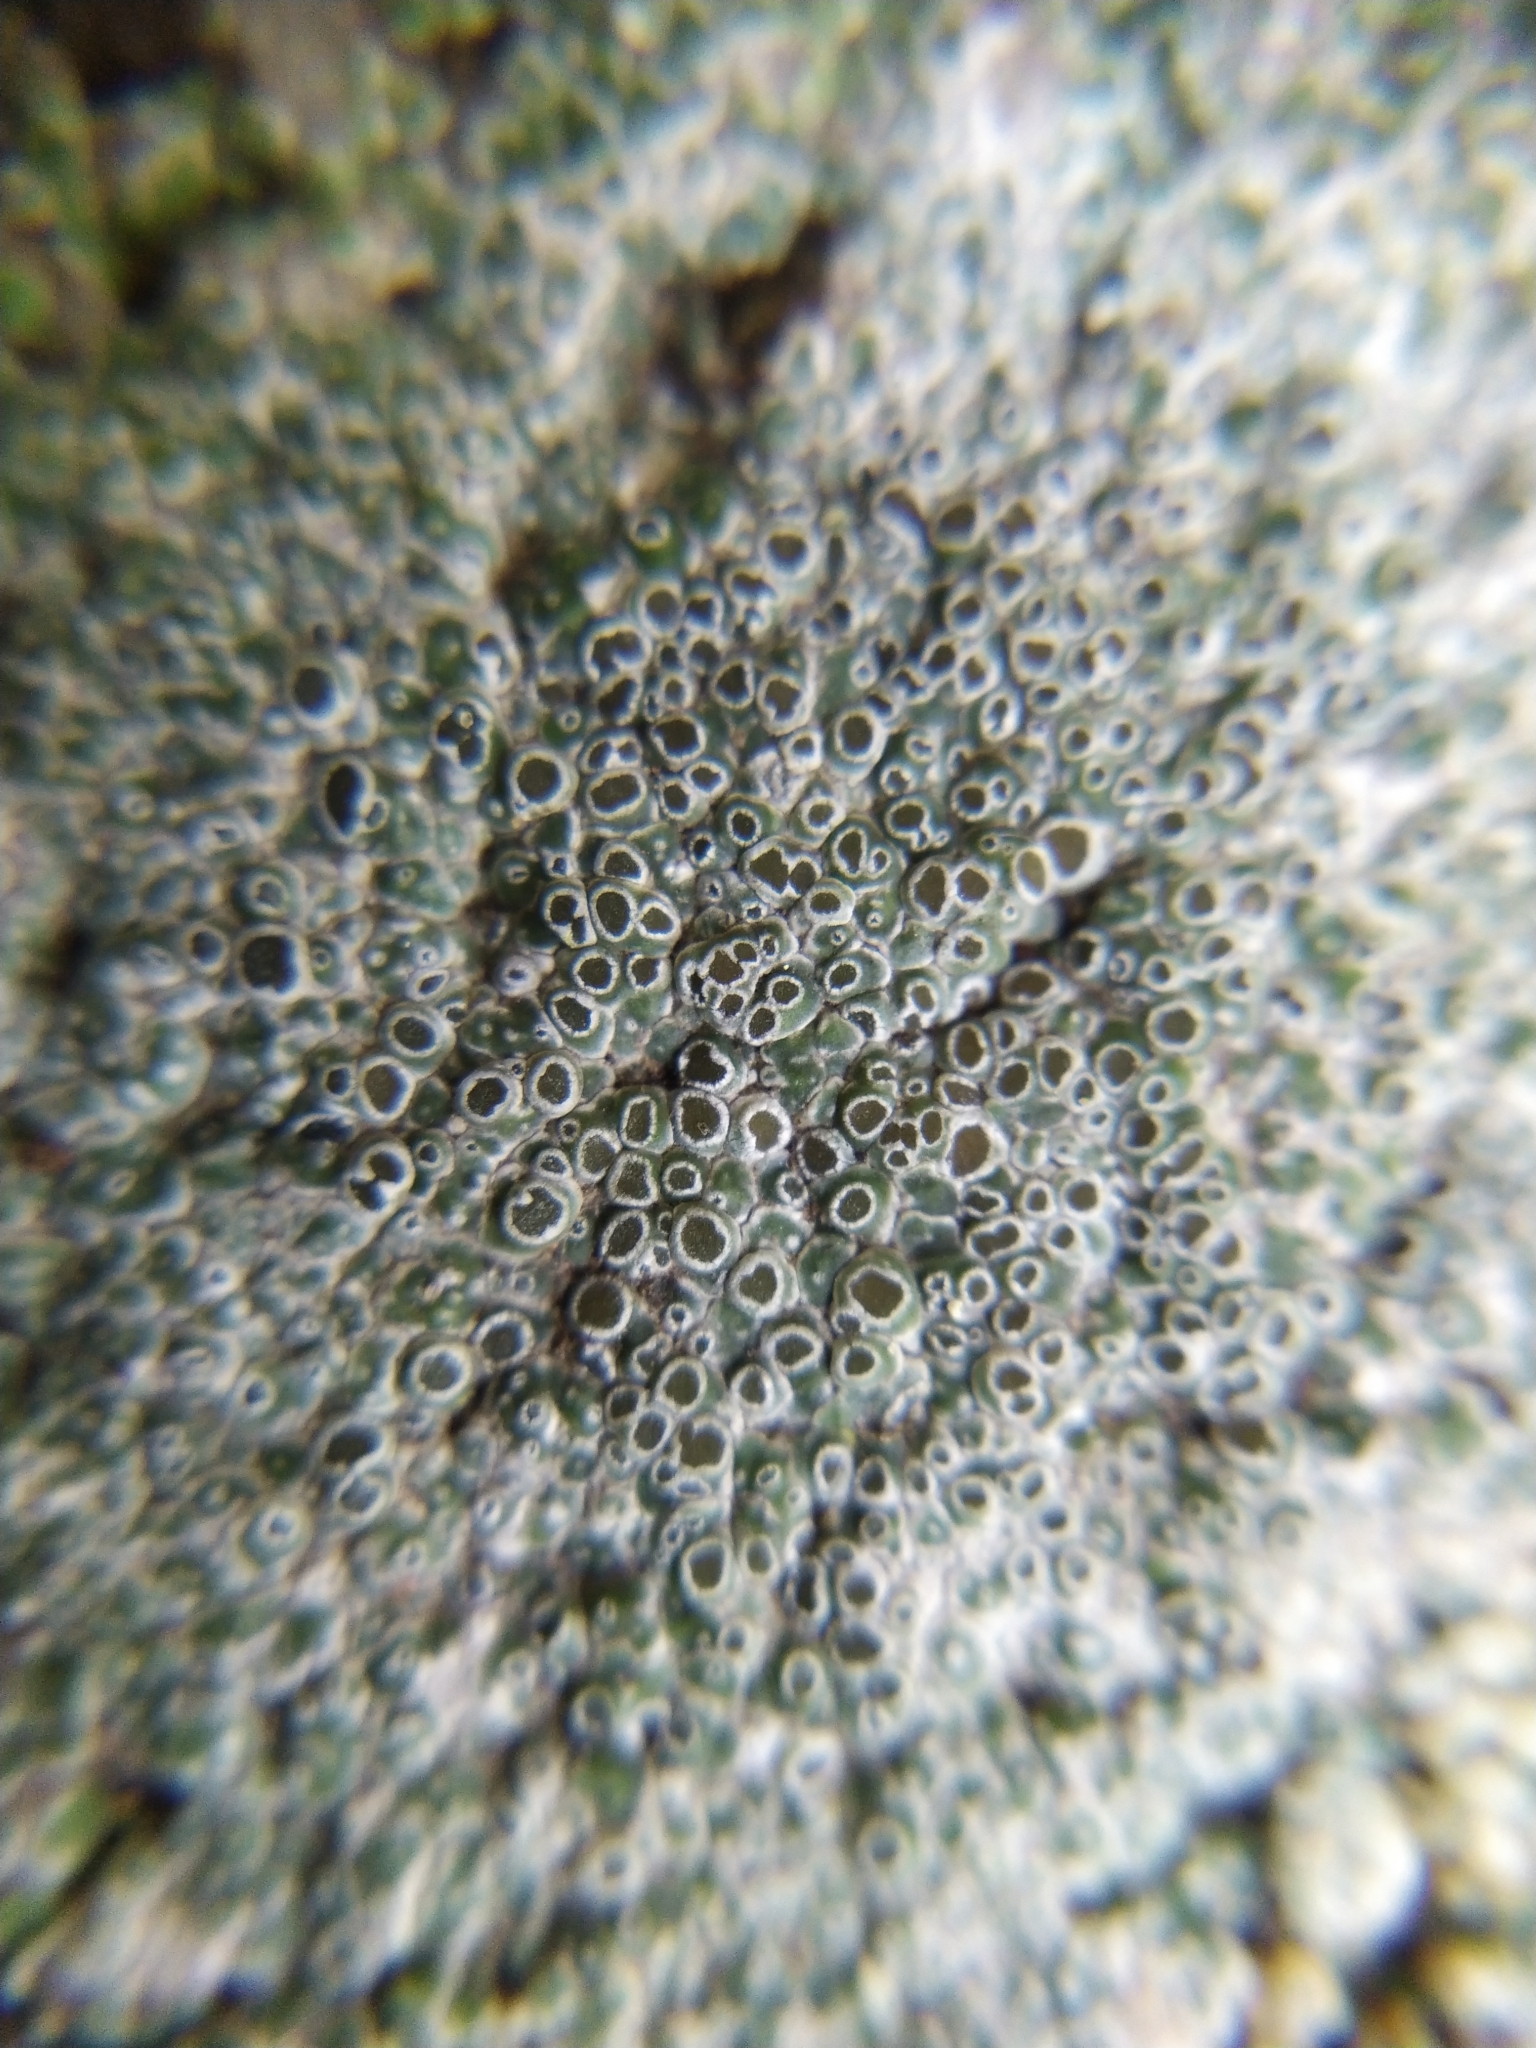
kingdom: Fungi
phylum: Ascomycota
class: Lecanoromycetes
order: Pertusariales
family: Megasporaceae
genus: Circinaria
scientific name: Circinaria contorta
